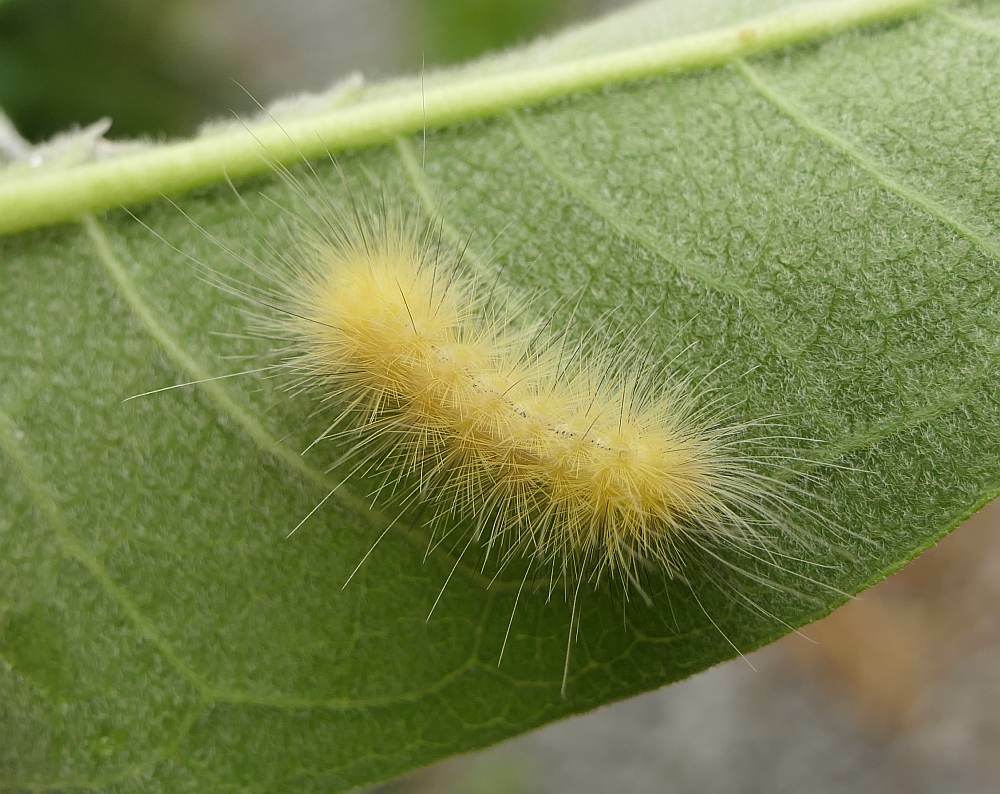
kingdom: Animalia
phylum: Arthropoda
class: Insecta
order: Lepidoptera
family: Erebidae
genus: Spilosoma
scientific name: Spilosoma virginica
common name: Virginia tiger moth
